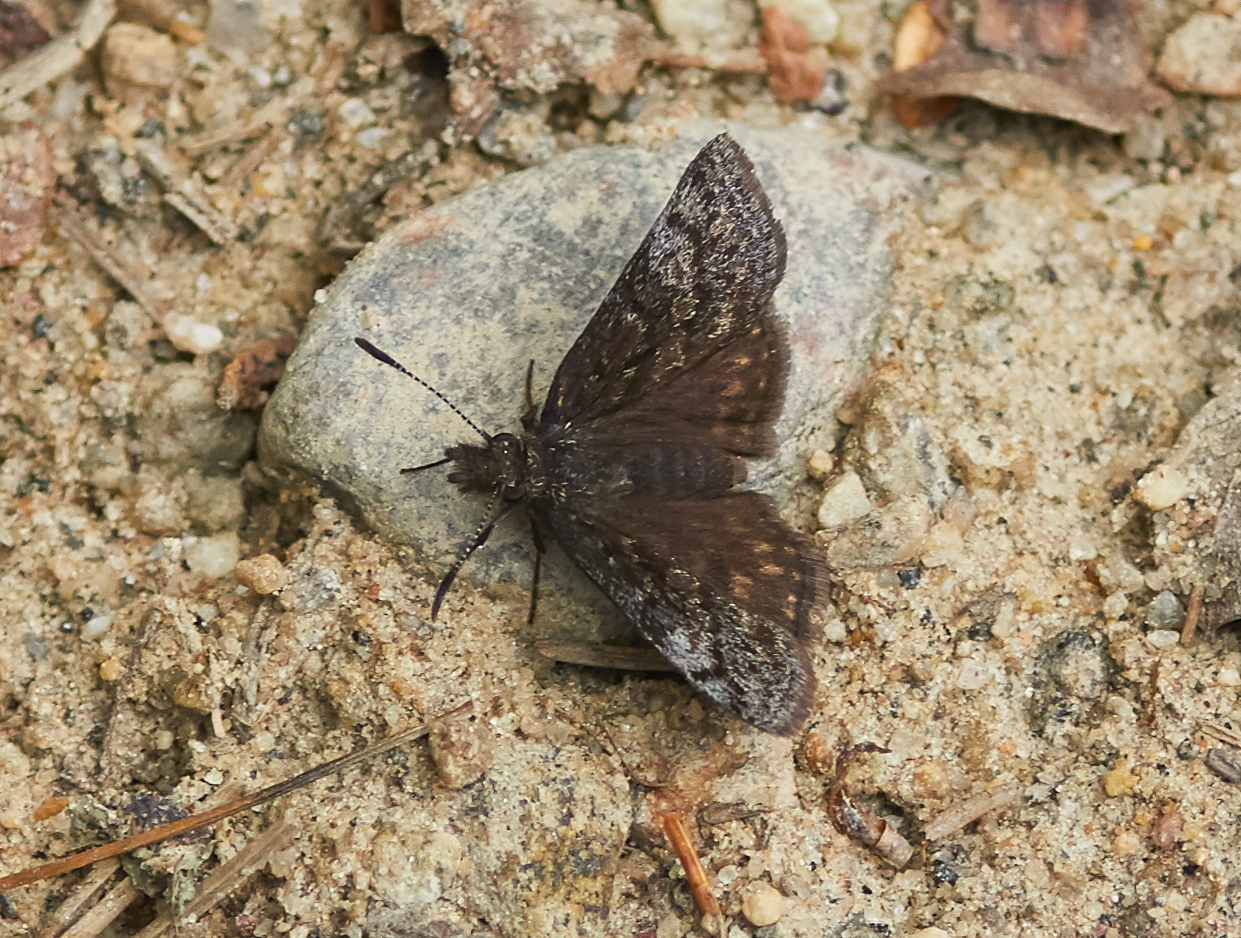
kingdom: Animalia
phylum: Arthropoda
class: Insecta
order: Lepidoptera
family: Hesperiidae
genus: Erynnis
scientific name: Erynnis icelus
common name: Dreamy duskywing
